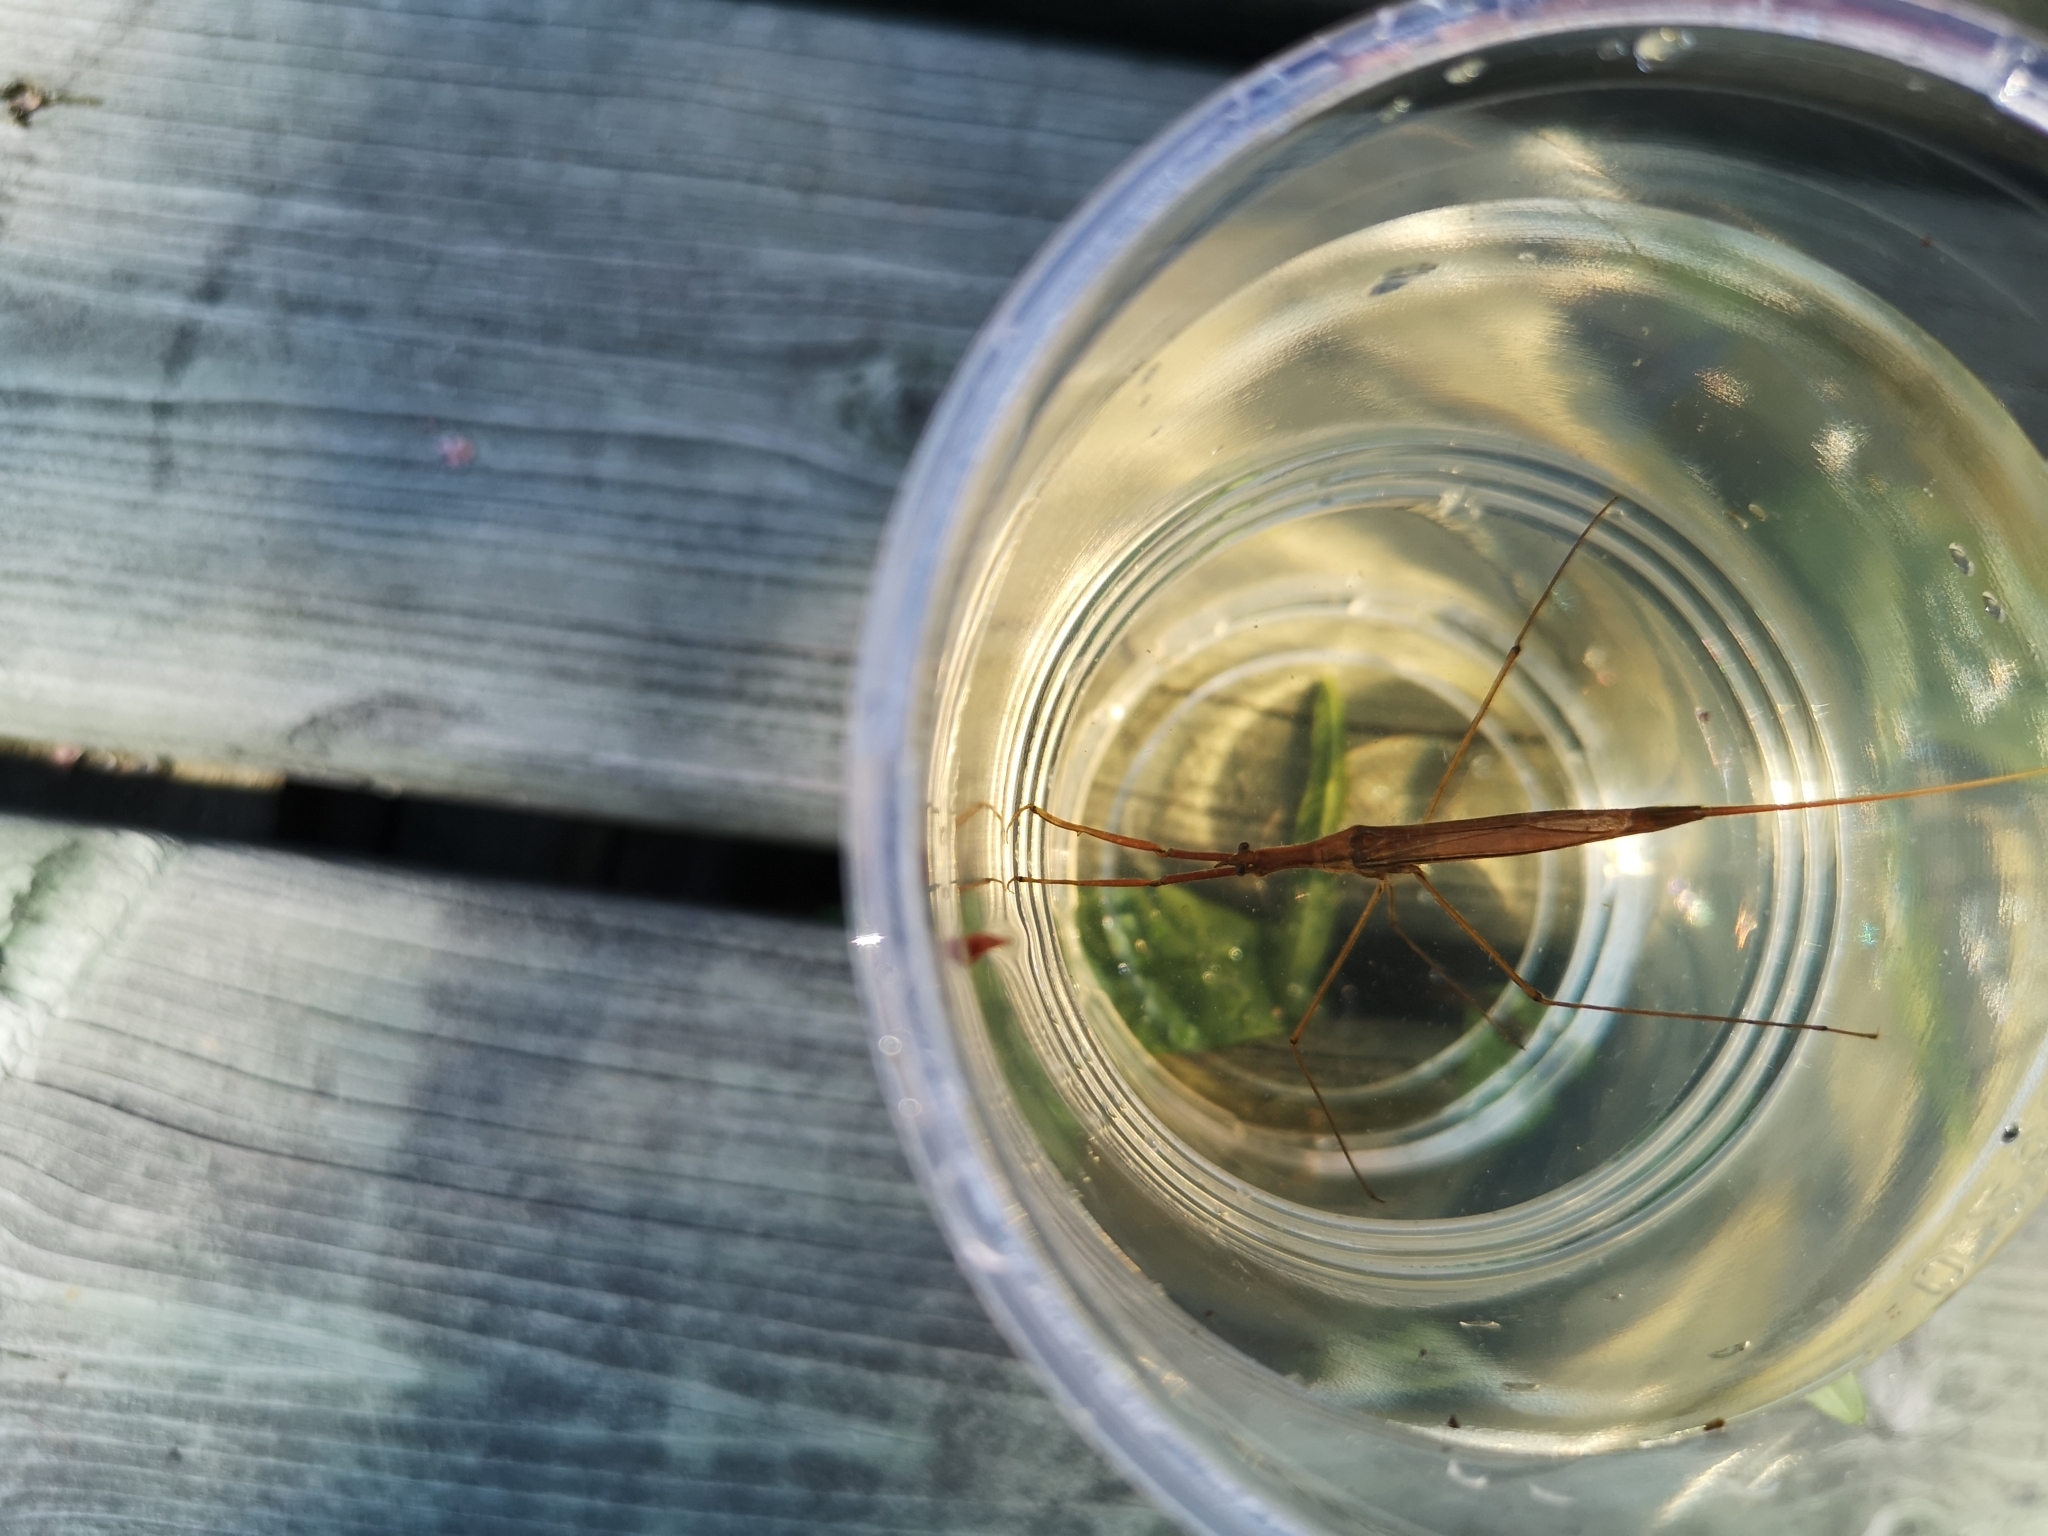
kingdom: Animalia
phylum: Arthropoda
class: Insecta
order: Hemiptera
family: Nepidae
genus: Ranatra
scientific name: Ranatra linearis
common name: Water stick insect
